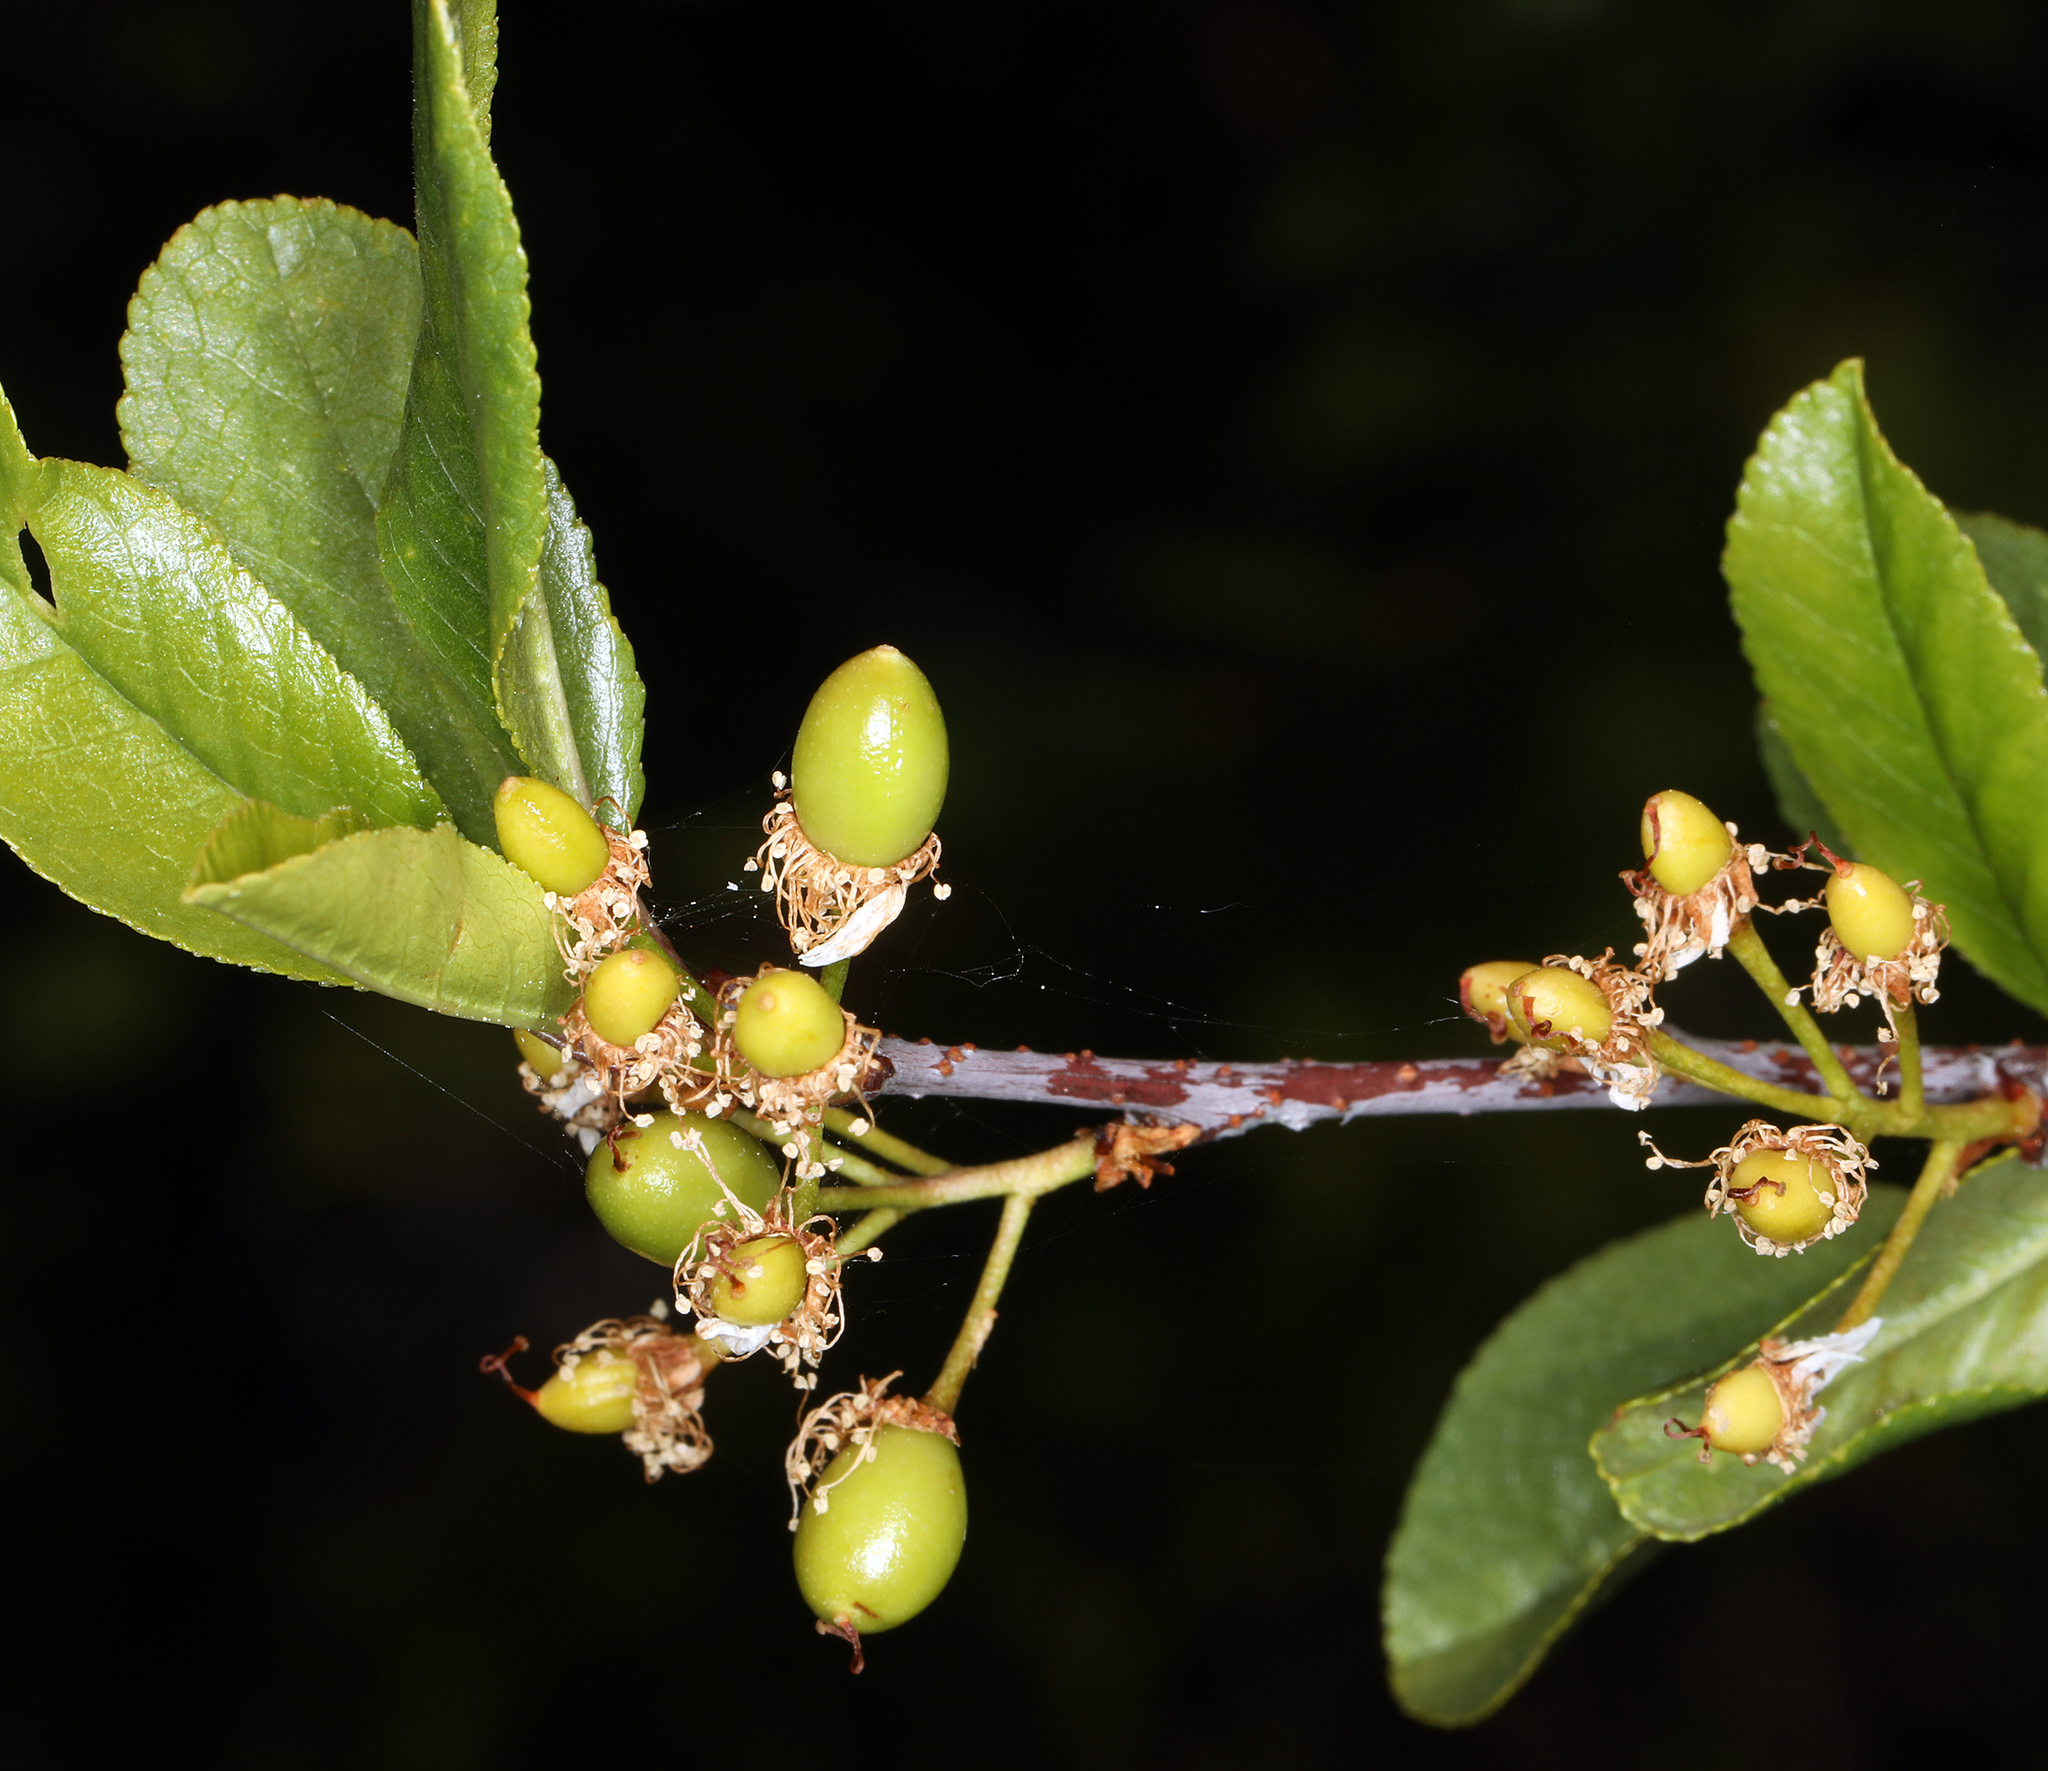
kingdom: Plantae
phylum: Tracheophyta
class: Magnoliopsida
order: Rosales
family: Rosaceae
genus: Prunus
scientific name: Prunus emarginata
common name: Bitter cherry
